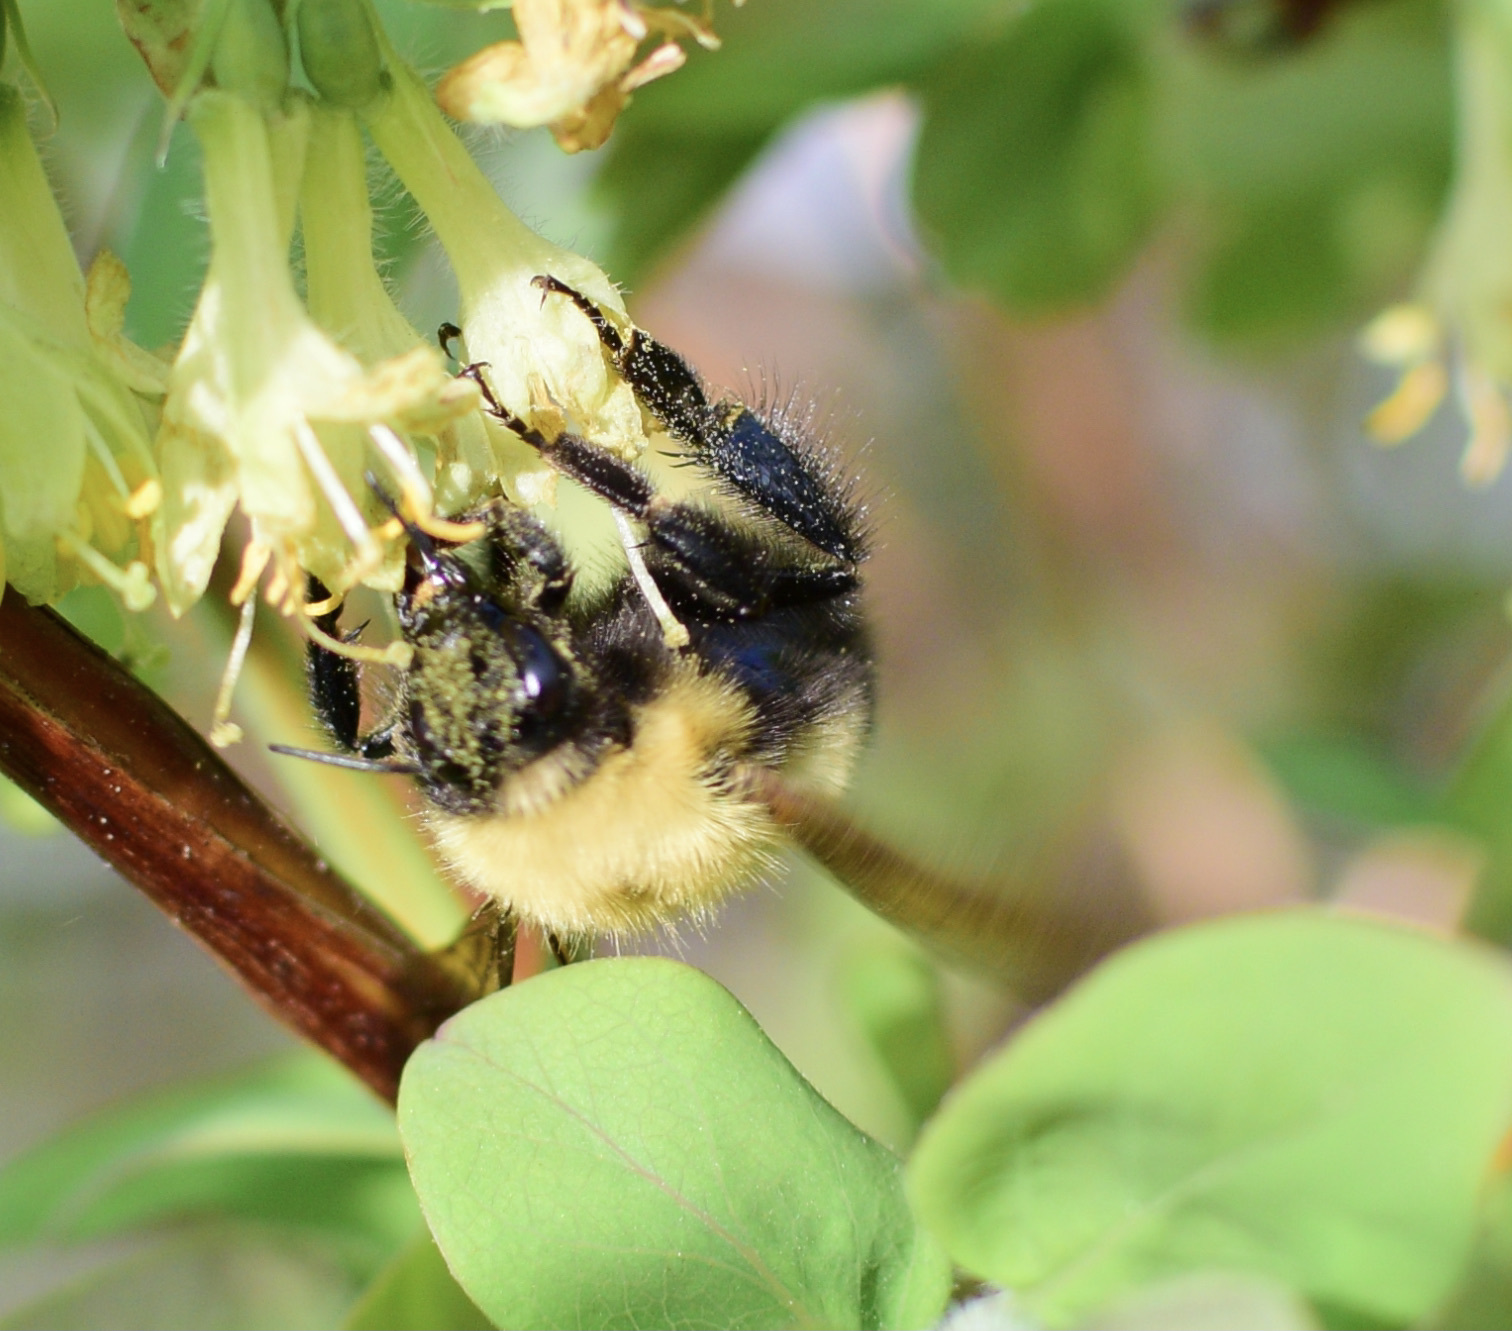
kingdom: Animalia
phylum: Arthropoda
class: Insecta
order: Hymenoptera
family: Apidae
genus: Bombus
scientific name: Bombus perplexus
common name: Confusing bumble bee
